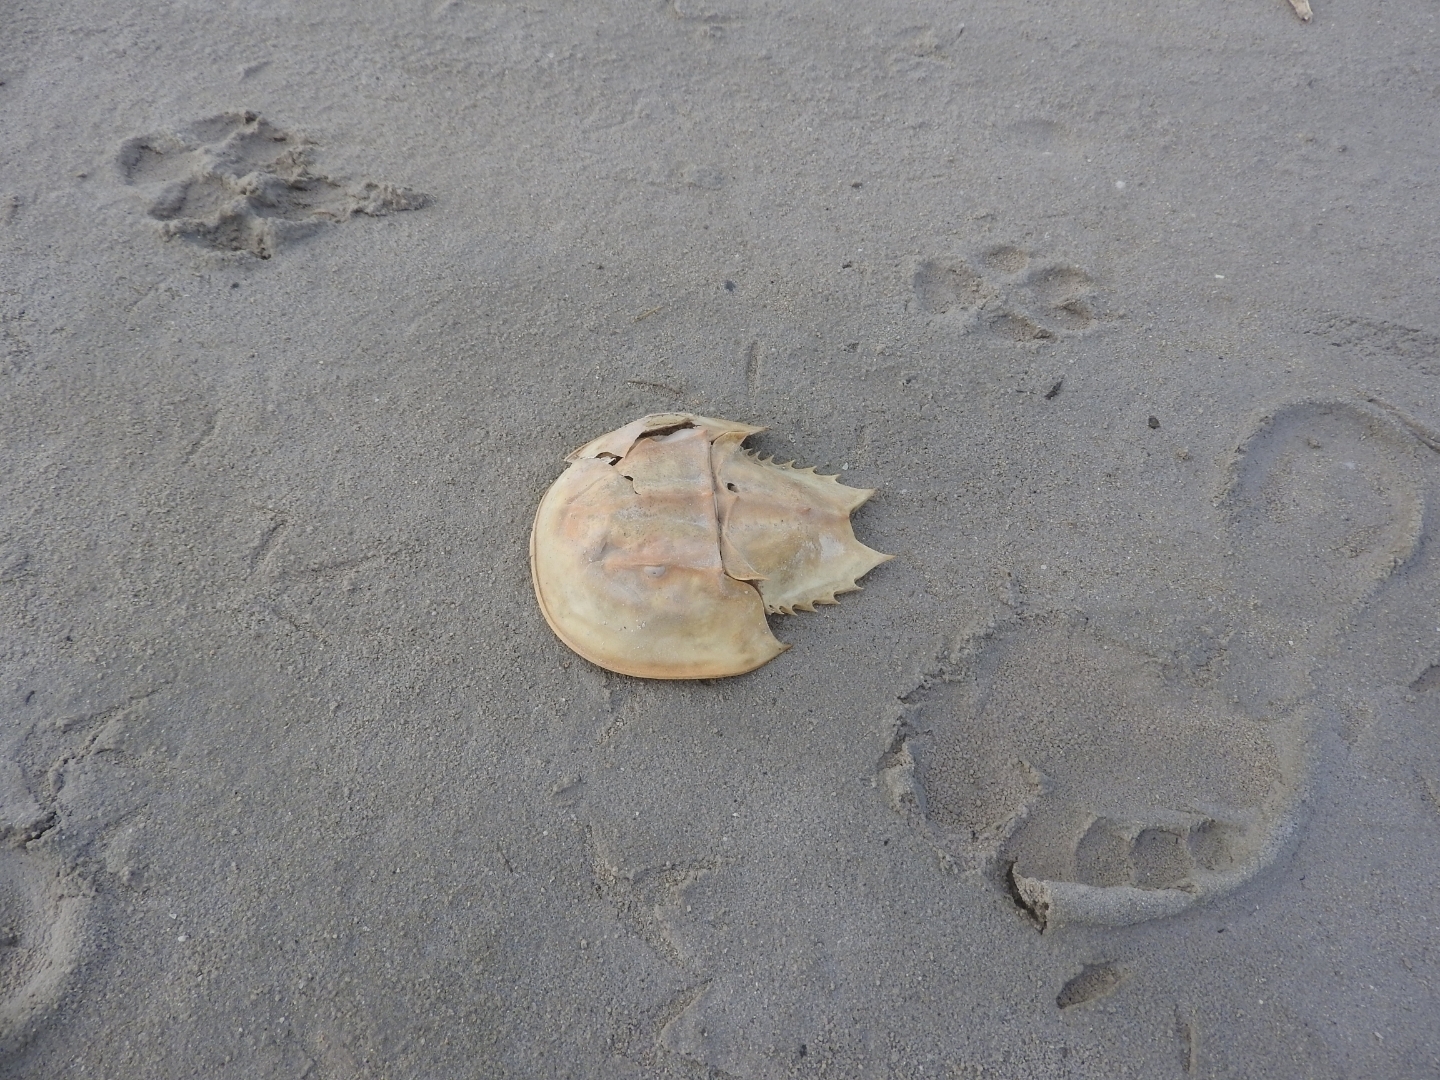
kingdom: Animalia
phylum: Arthropoda
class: Merostomata
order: Xiphosurida
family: Limulidae
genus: Limulus
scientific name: Limulus polyphemus
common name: Horseshoe crab
